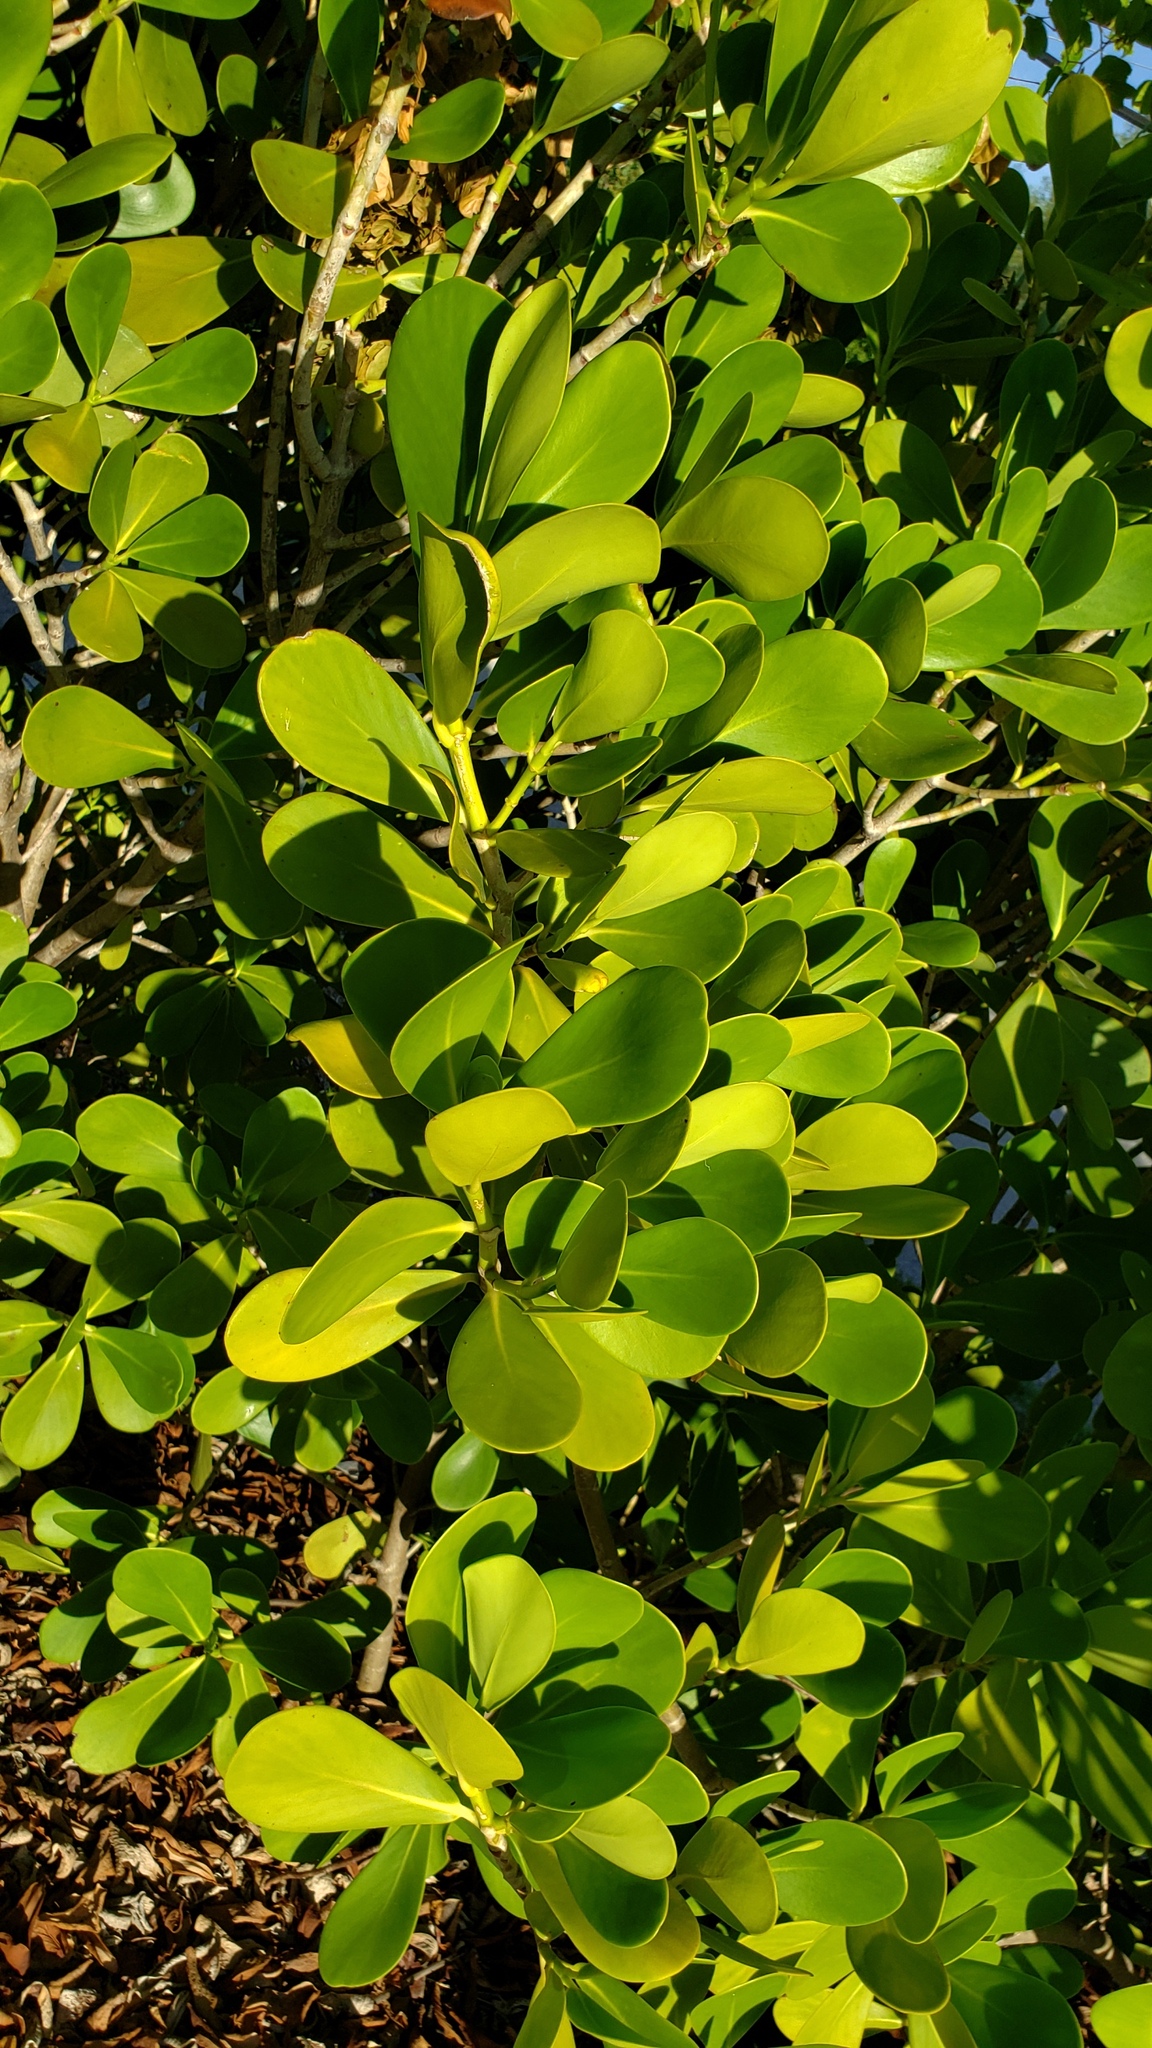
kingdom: Plantae
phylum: Tracheophyta
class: Magnoliopsida
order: Malpighiales
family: Clusiaceae
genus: Clusia
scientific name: Clusia rosea
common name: Scotch attorney
